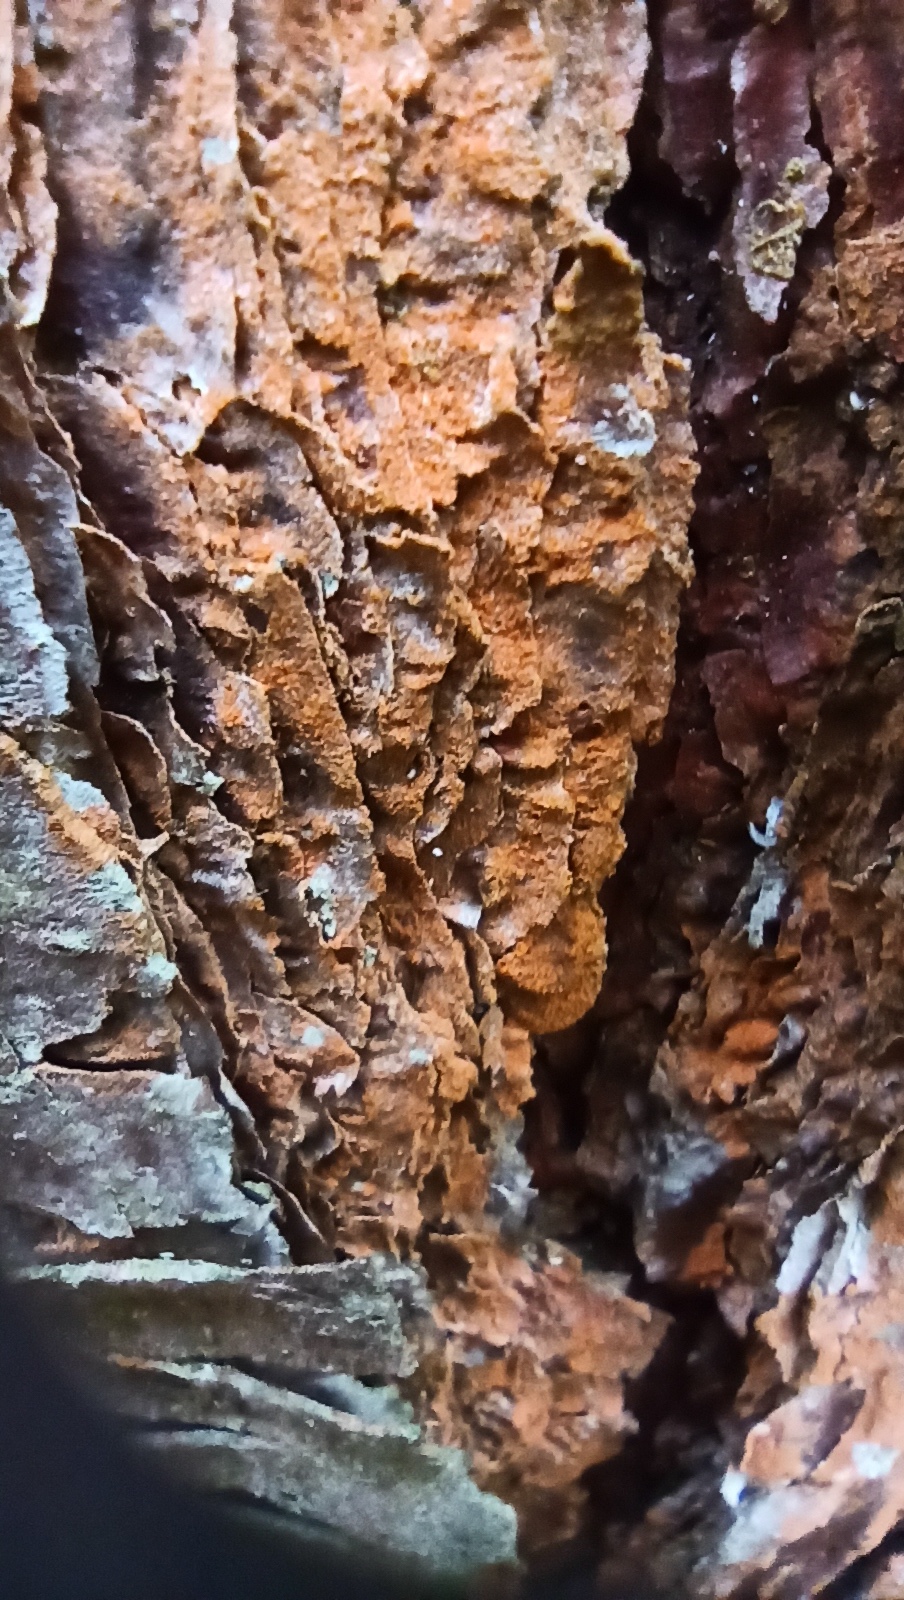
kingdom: Plantae
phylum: Chlorophyta
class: Ulvophyceae
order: Trentepohliales
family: Trentepohliaceae
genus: Trentepohlia
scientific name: Trentepohlia
